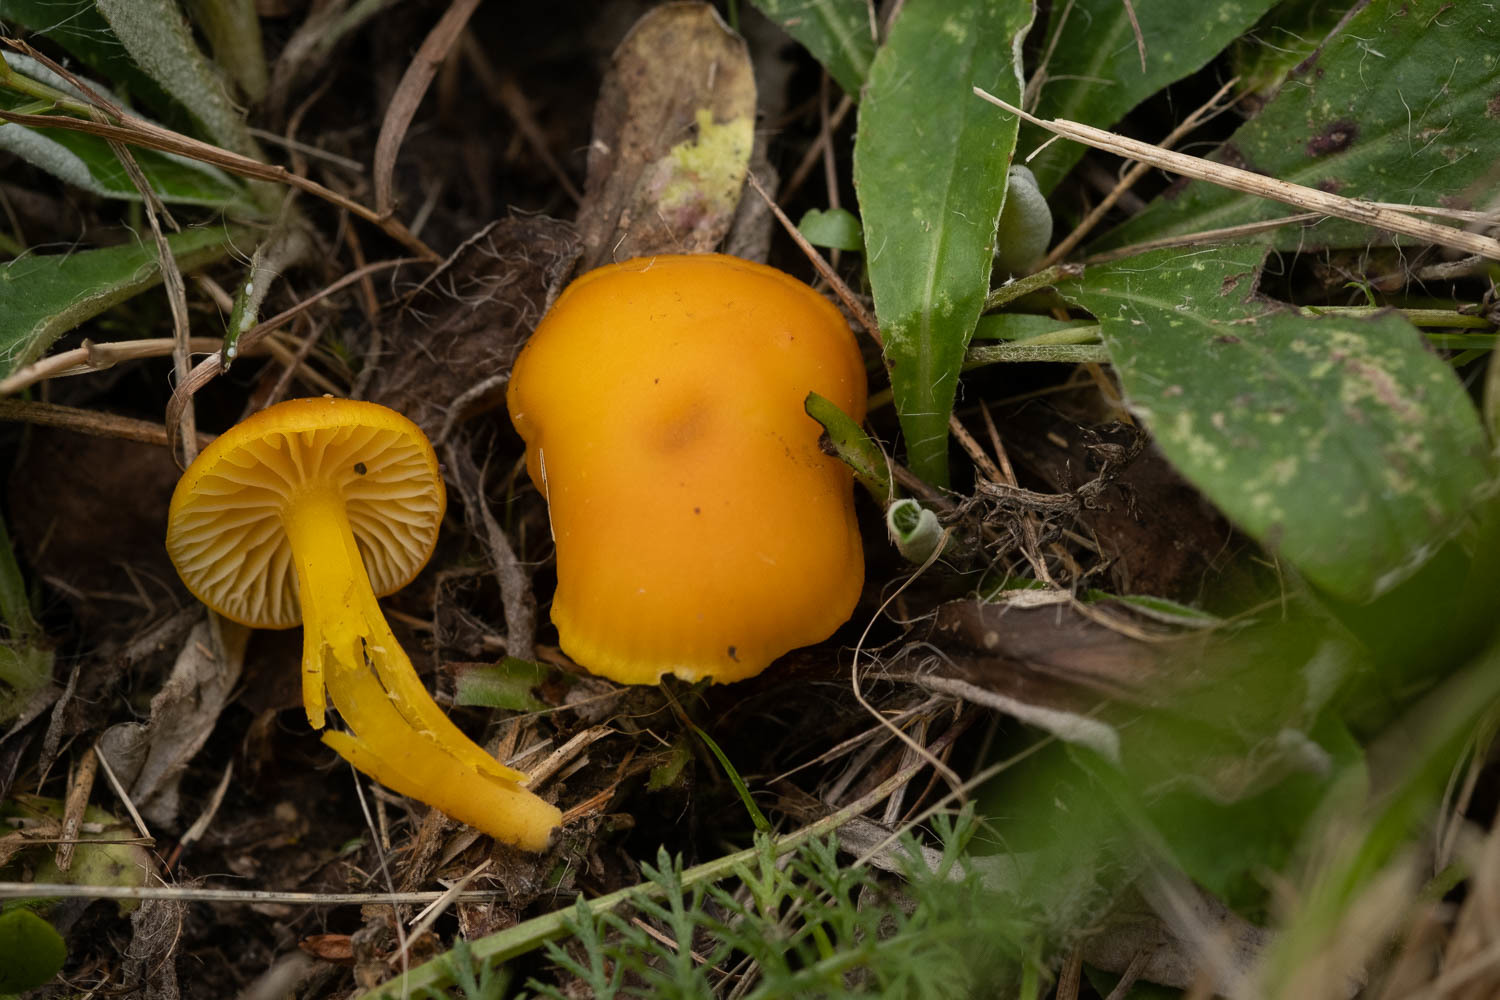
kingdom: Fungi
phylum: Basidiomycota
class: Agaricomycetes
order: Agaricales
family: Hygrophoraceae
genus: Hygrocybe
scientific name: Hygrocybe ceracea
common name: Butter waxcap
